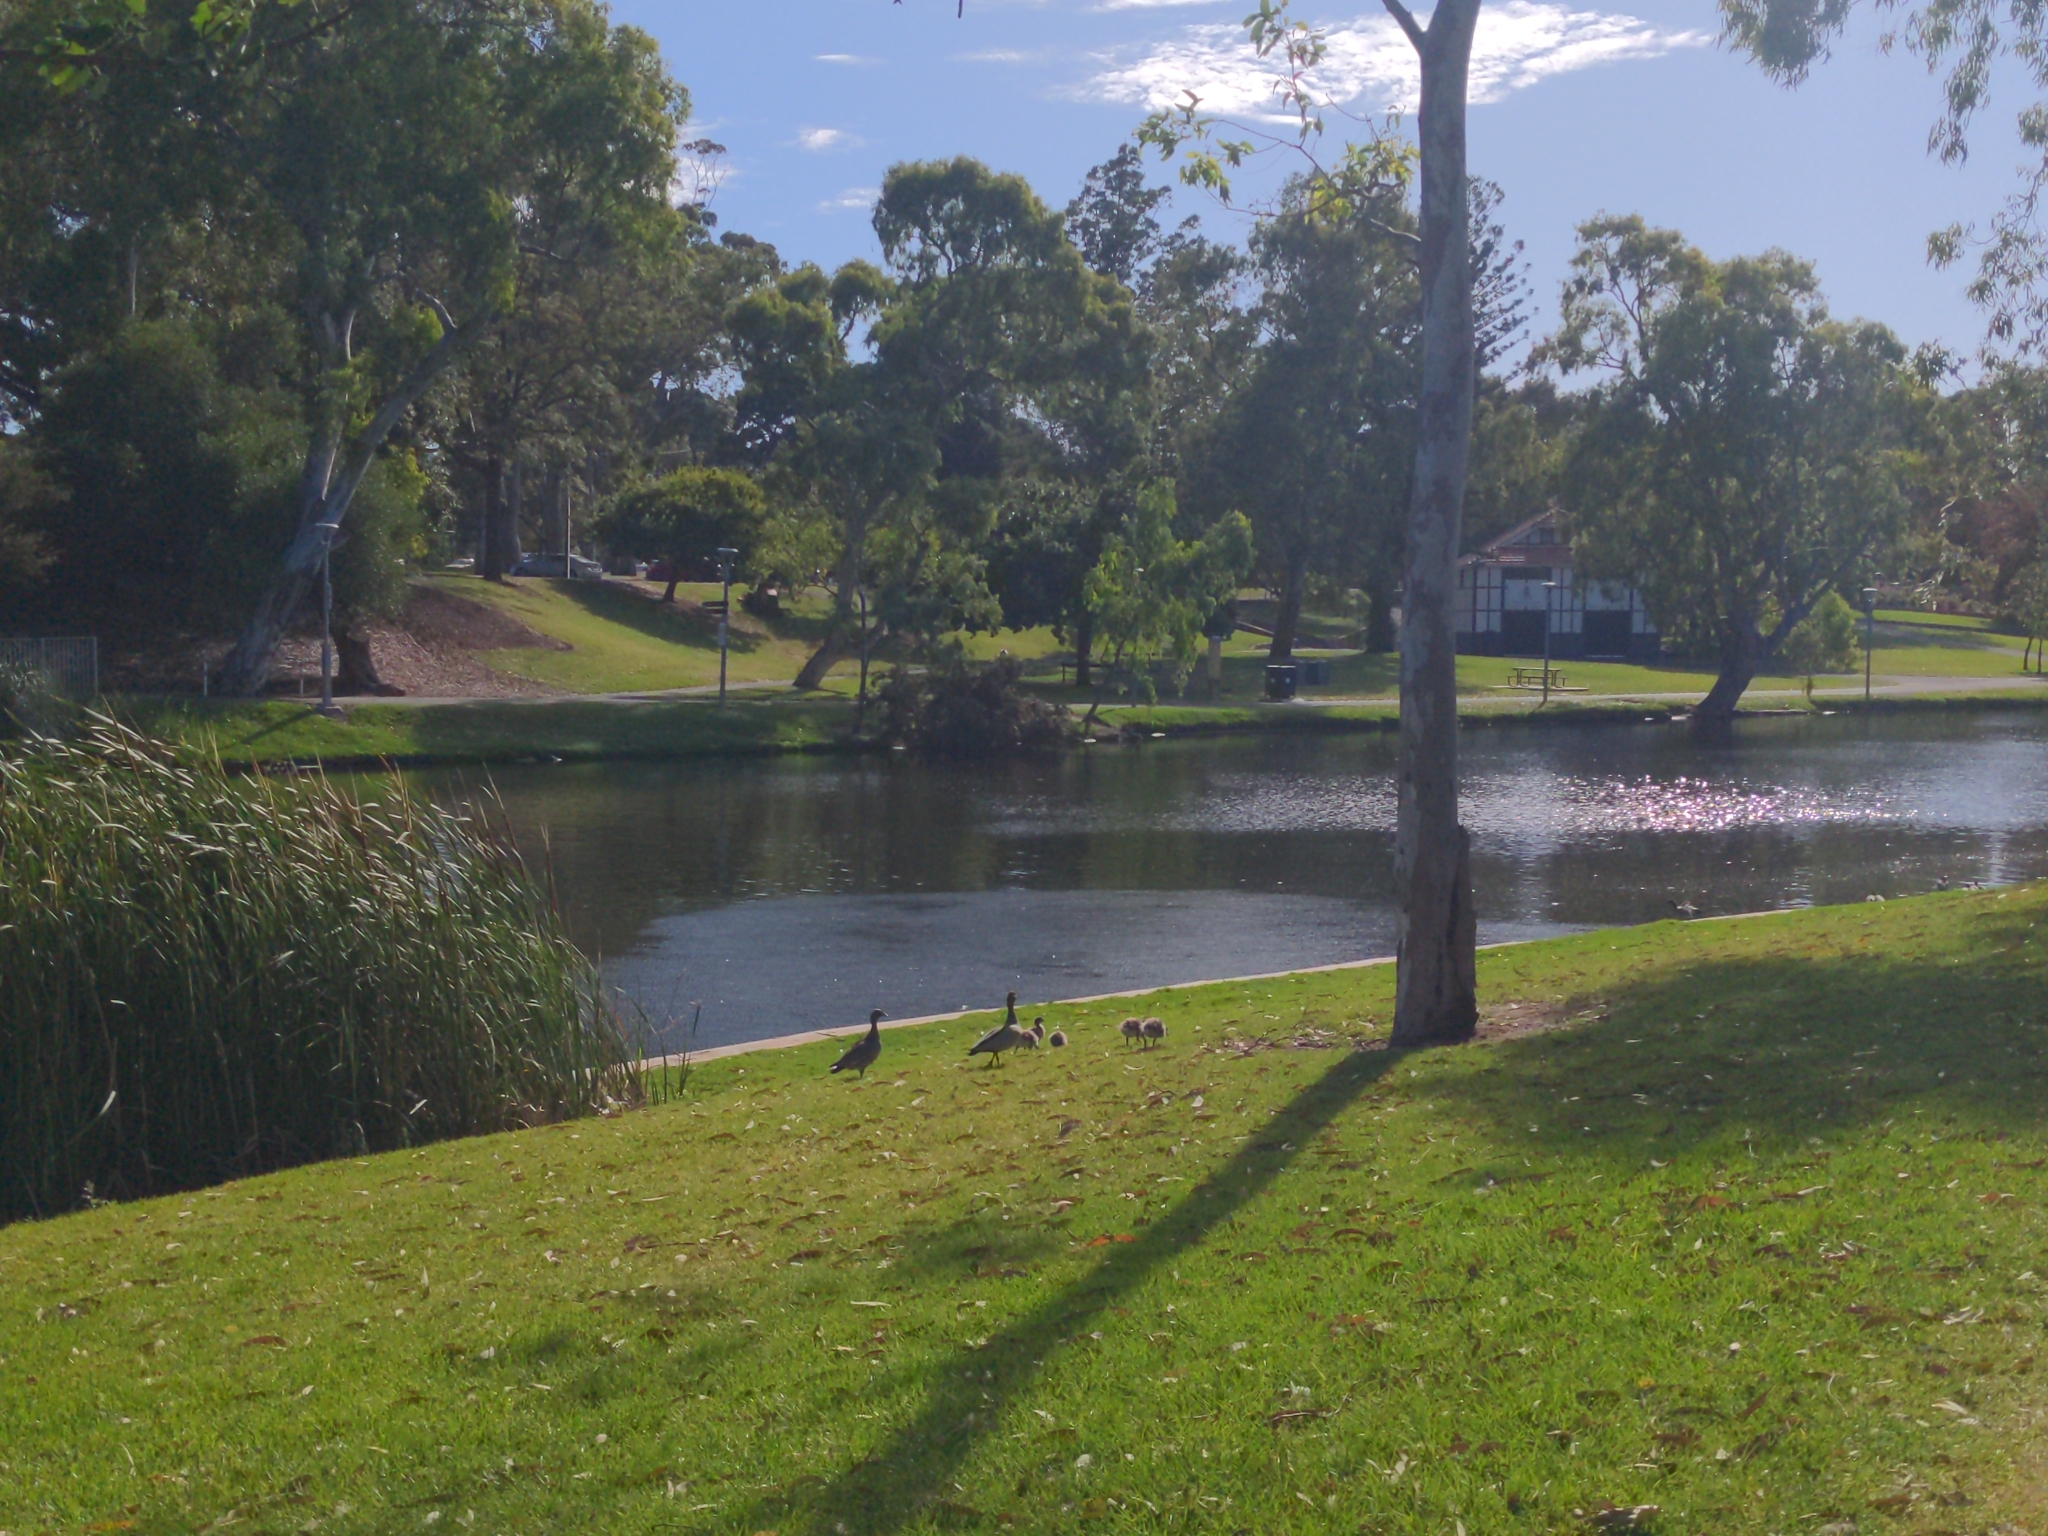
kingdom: Animalia
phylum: Chordata
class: Aves
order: Anseriformes
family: Anatidae
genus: Chenonetta
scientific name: Chenonetta jubata
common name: Maned duck
